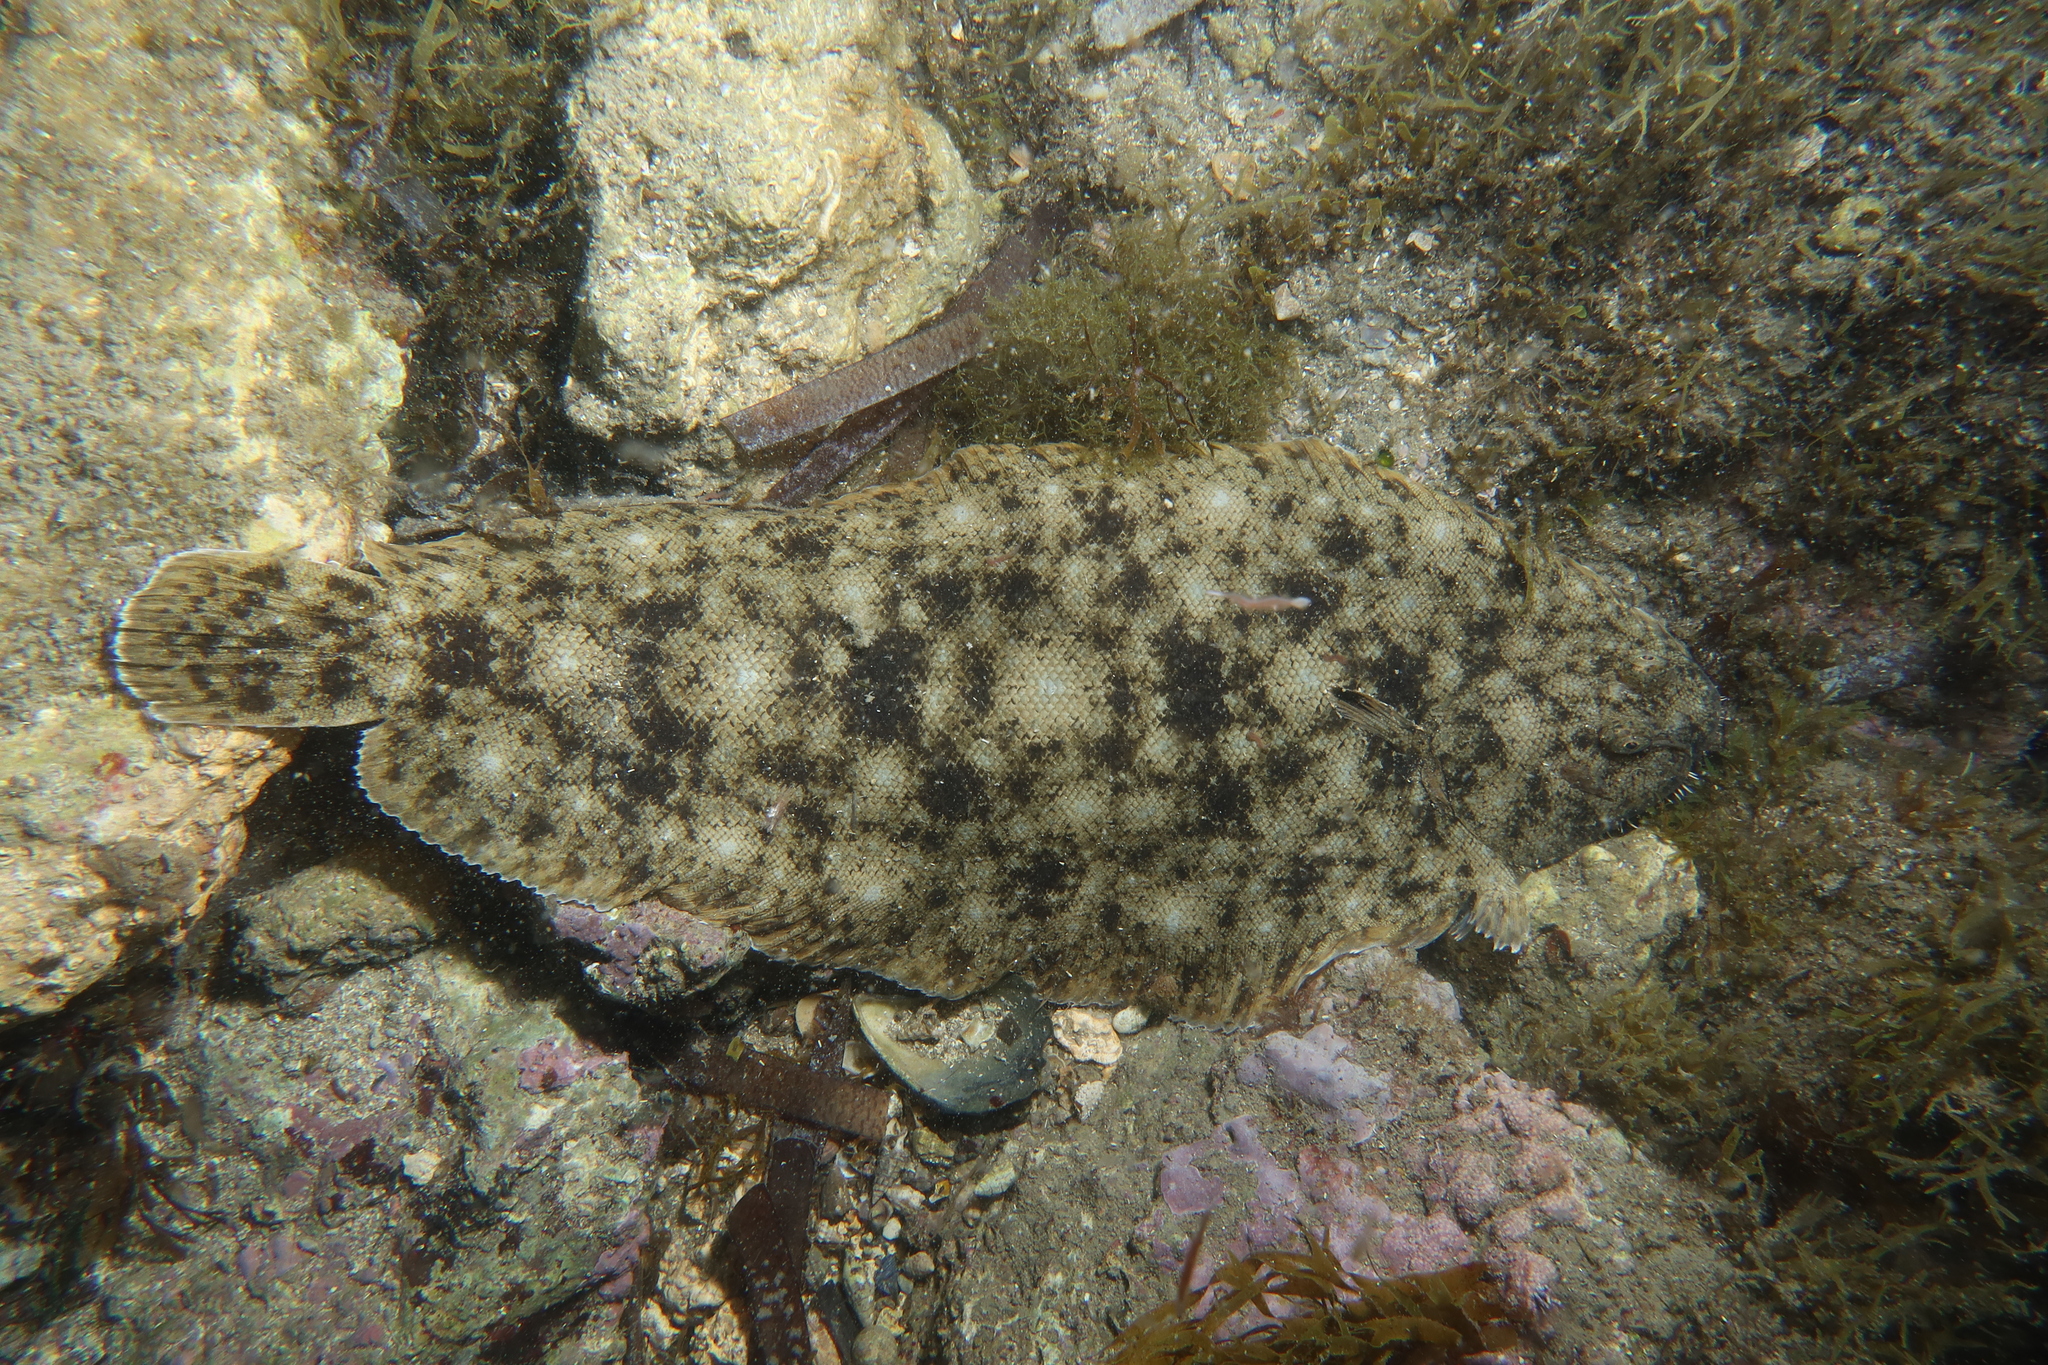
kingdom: Animalia
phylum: Chordata
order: Pleuronectiformes
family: Soleidae
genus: Solea
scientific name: Solea aegyptiaca
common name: Egyptian sole
